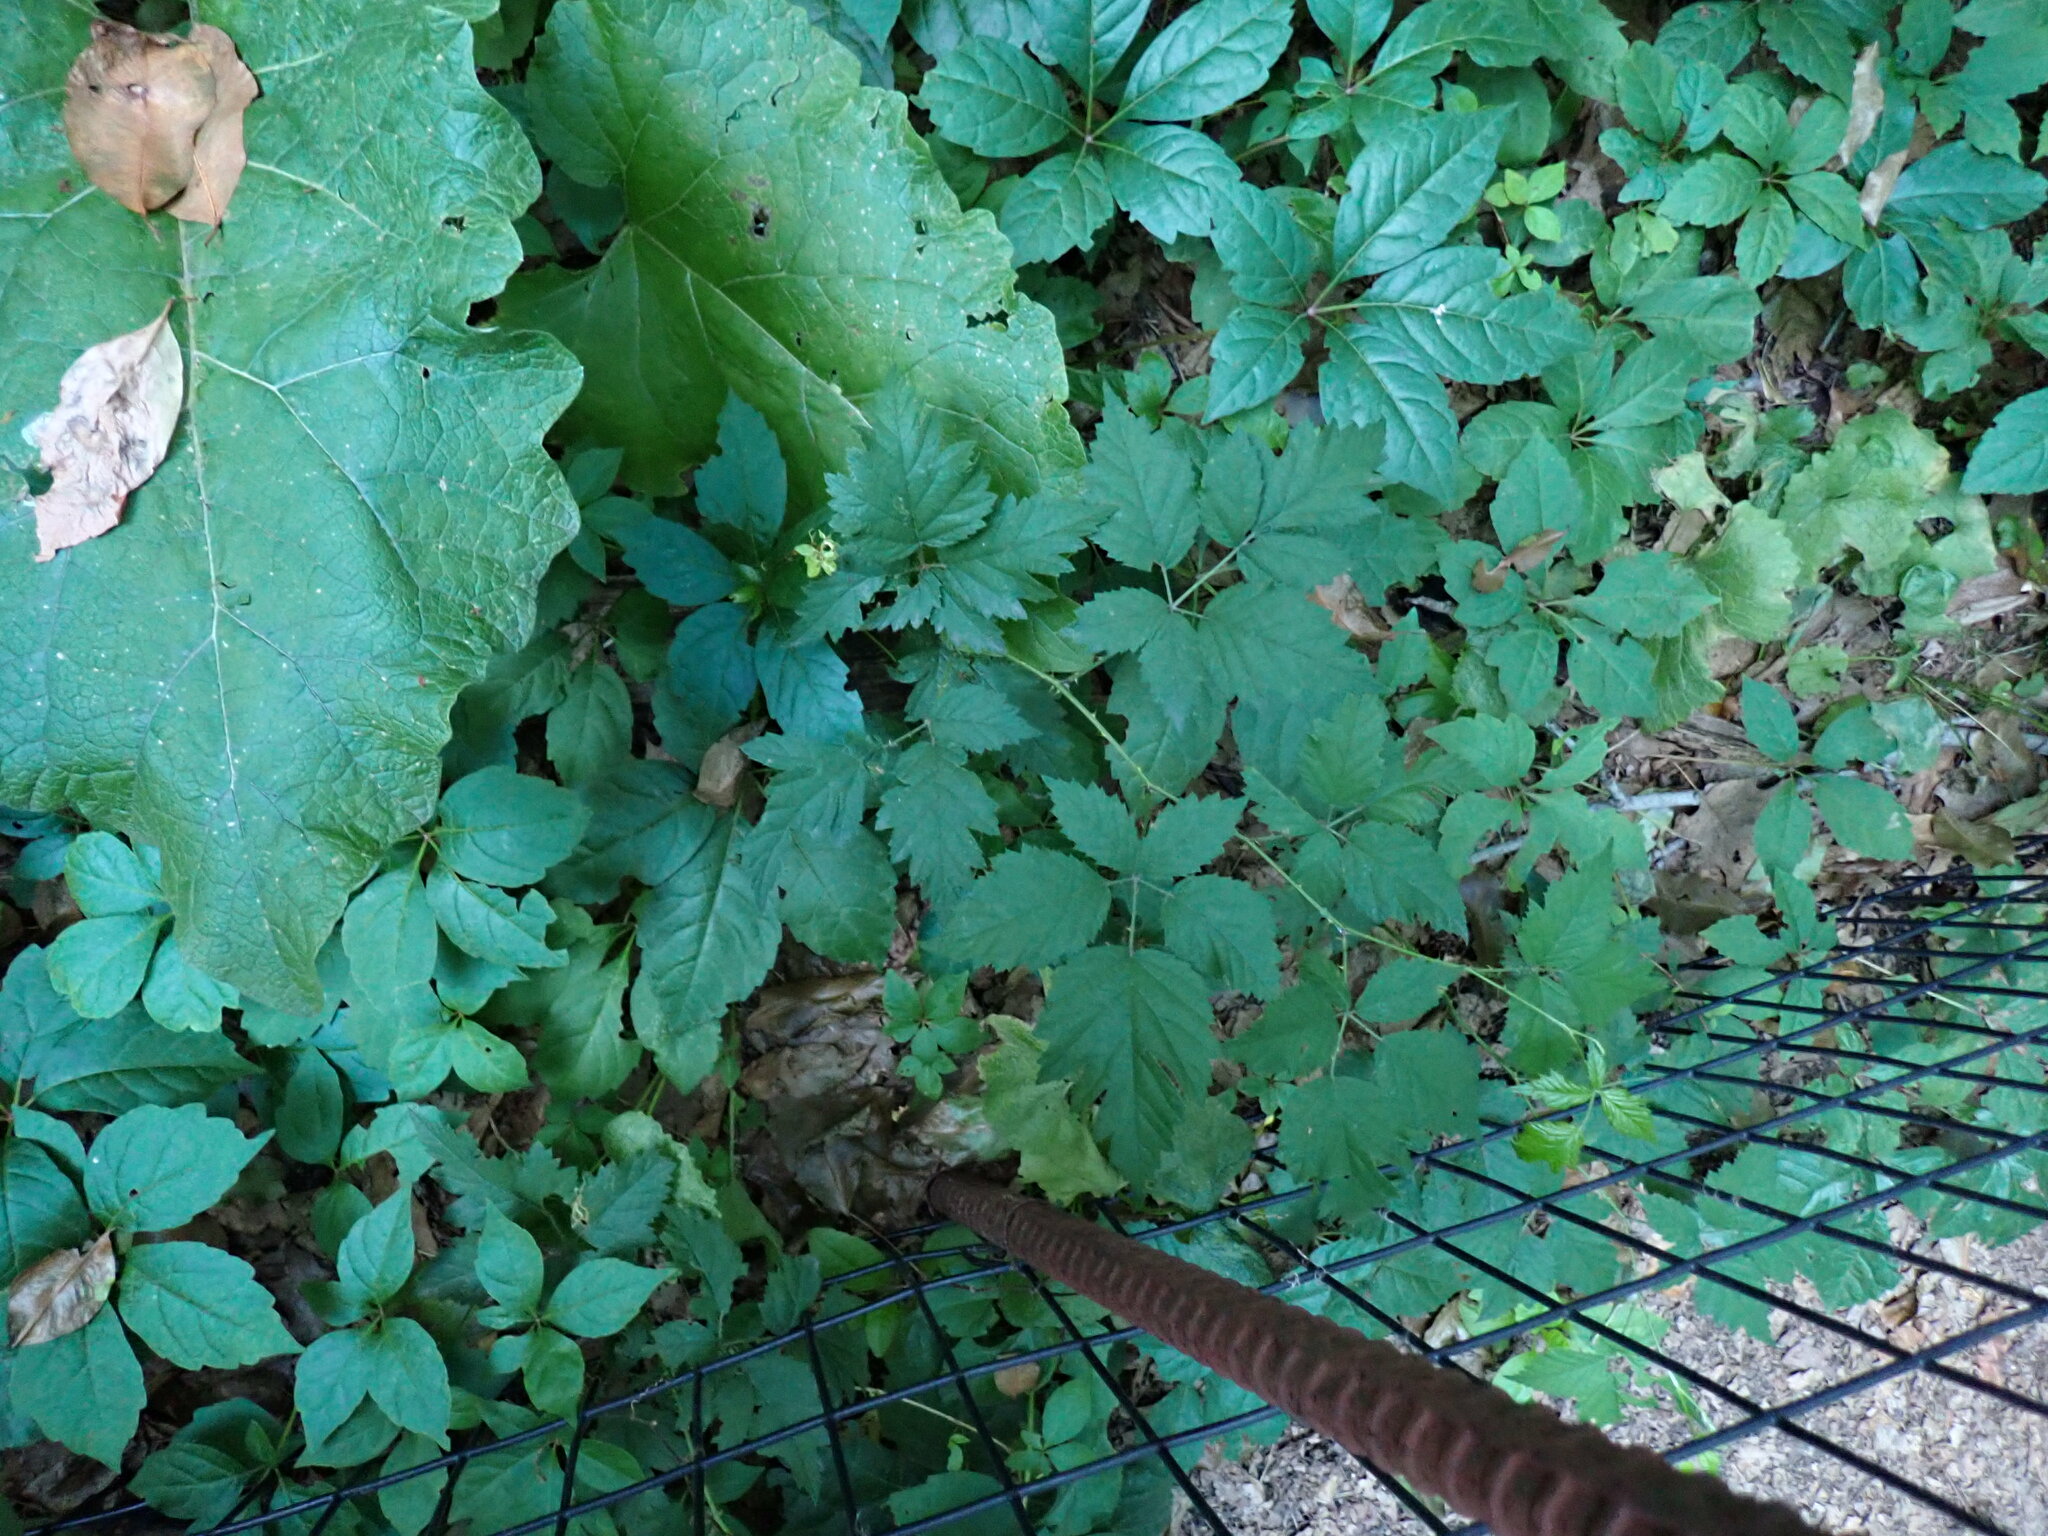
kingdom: Plantae
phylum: Tracheophyta
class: Magnoliopsida
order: Rosales
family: Rosaceae
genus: Rubus
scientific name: Rubus laciniatus
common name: Evergreen blackberry
